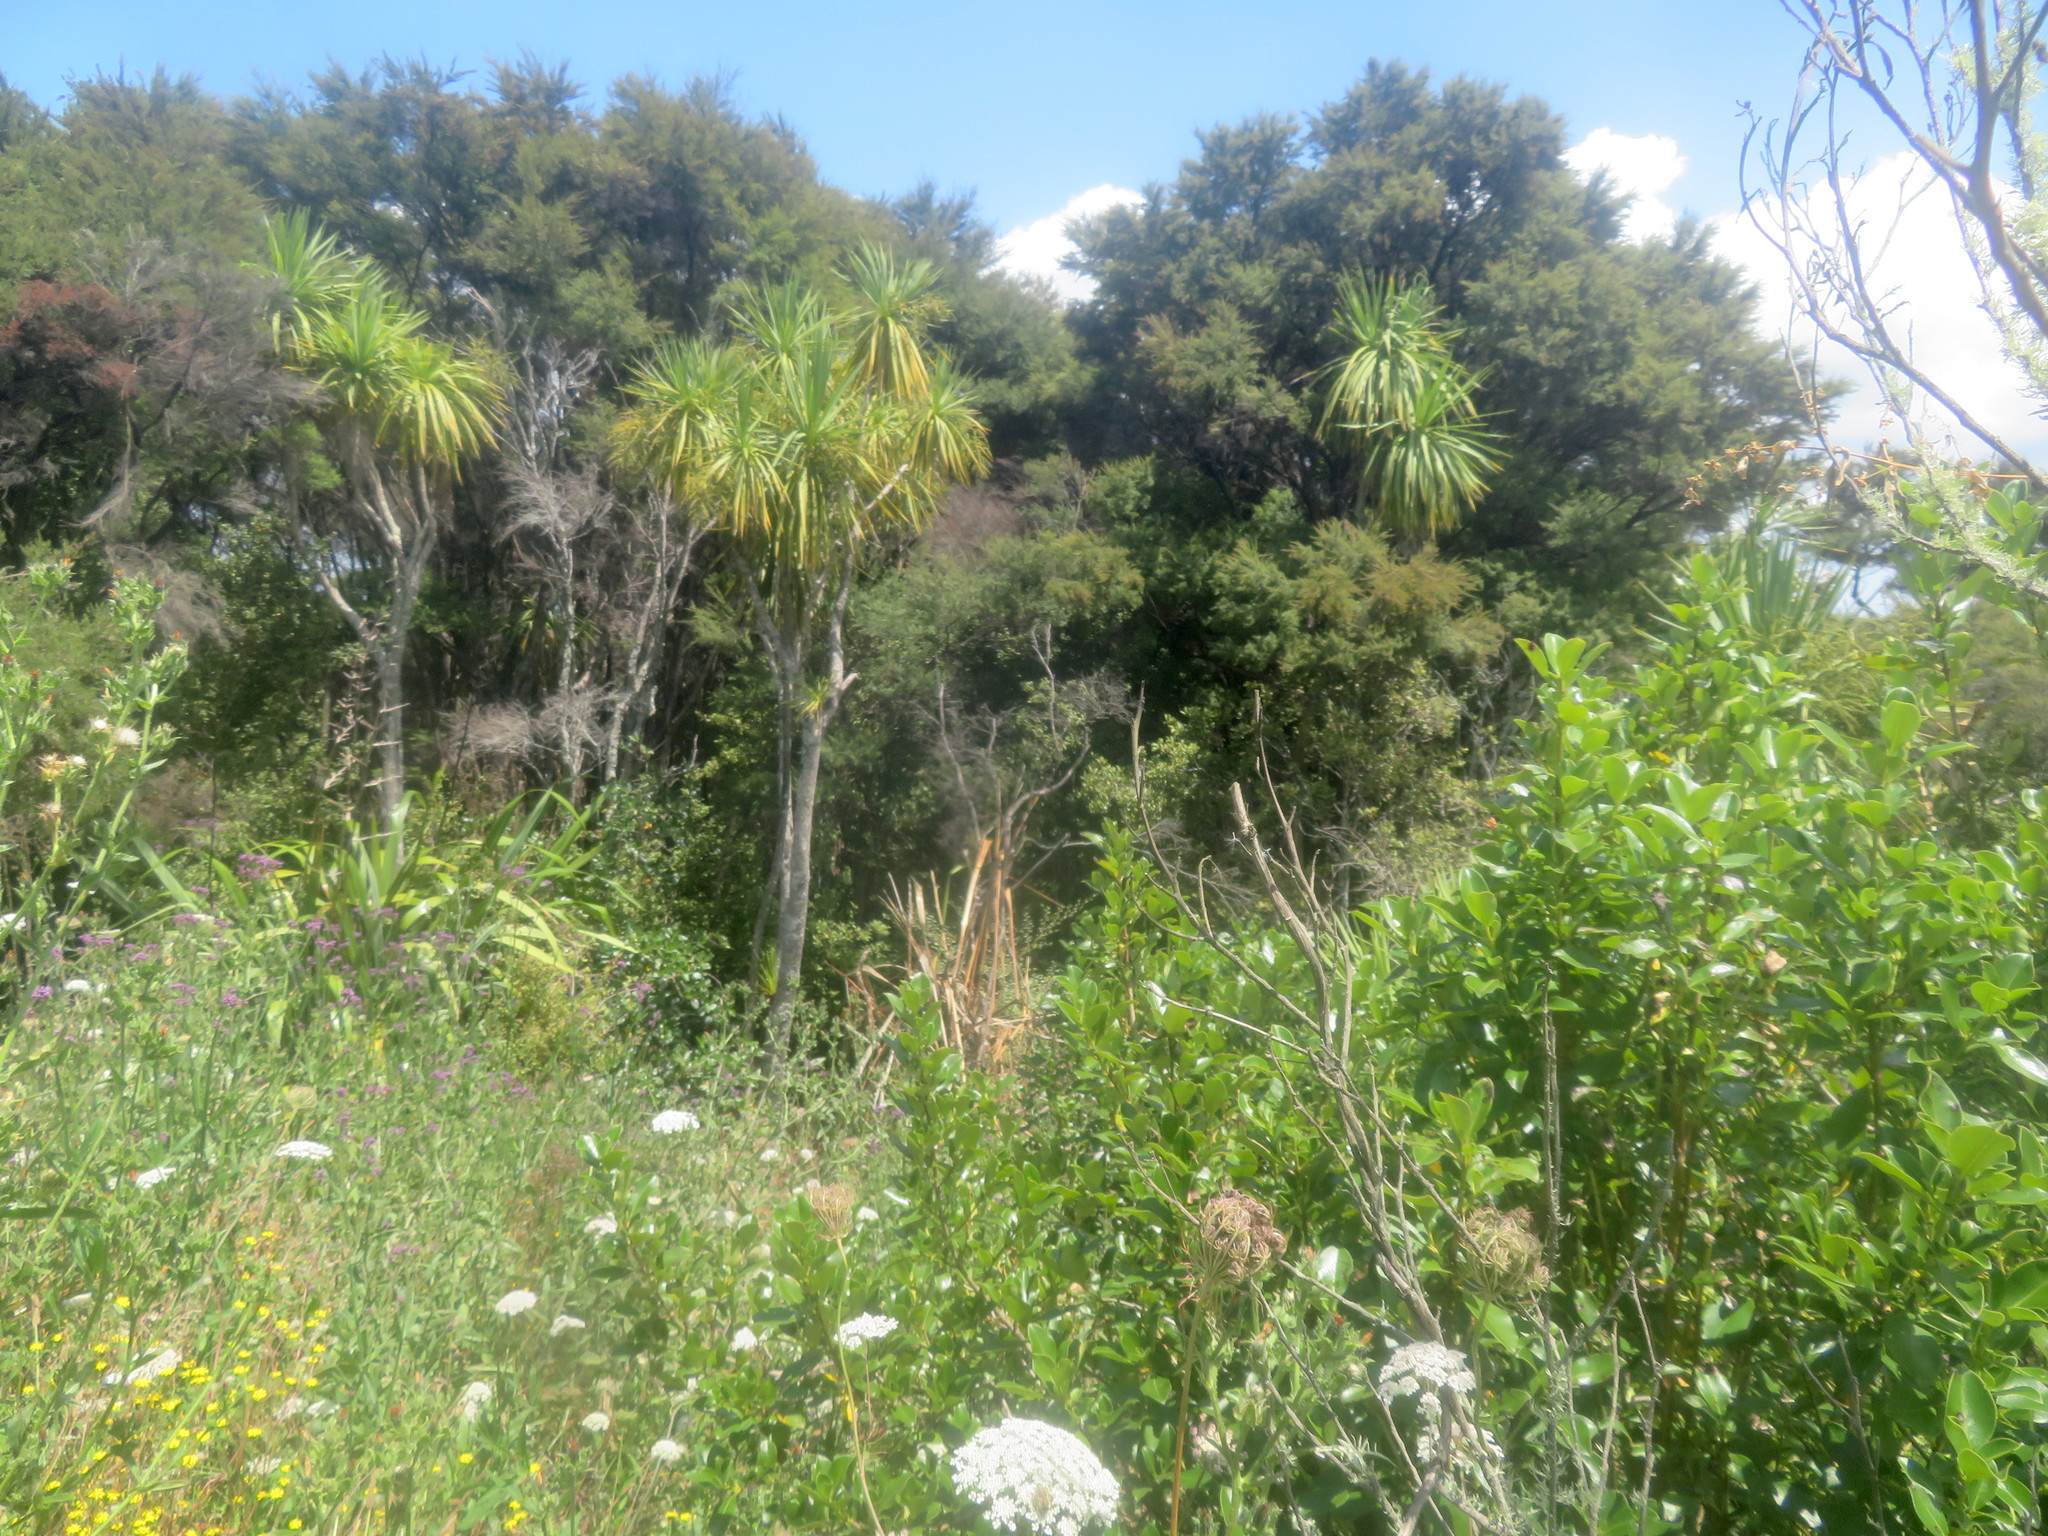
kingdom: Animalia
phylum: Arthropoda
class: Insecta
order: Hymenoptera
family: Apidae
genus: Apis
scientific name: Apis mellifera
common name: Honey bee
